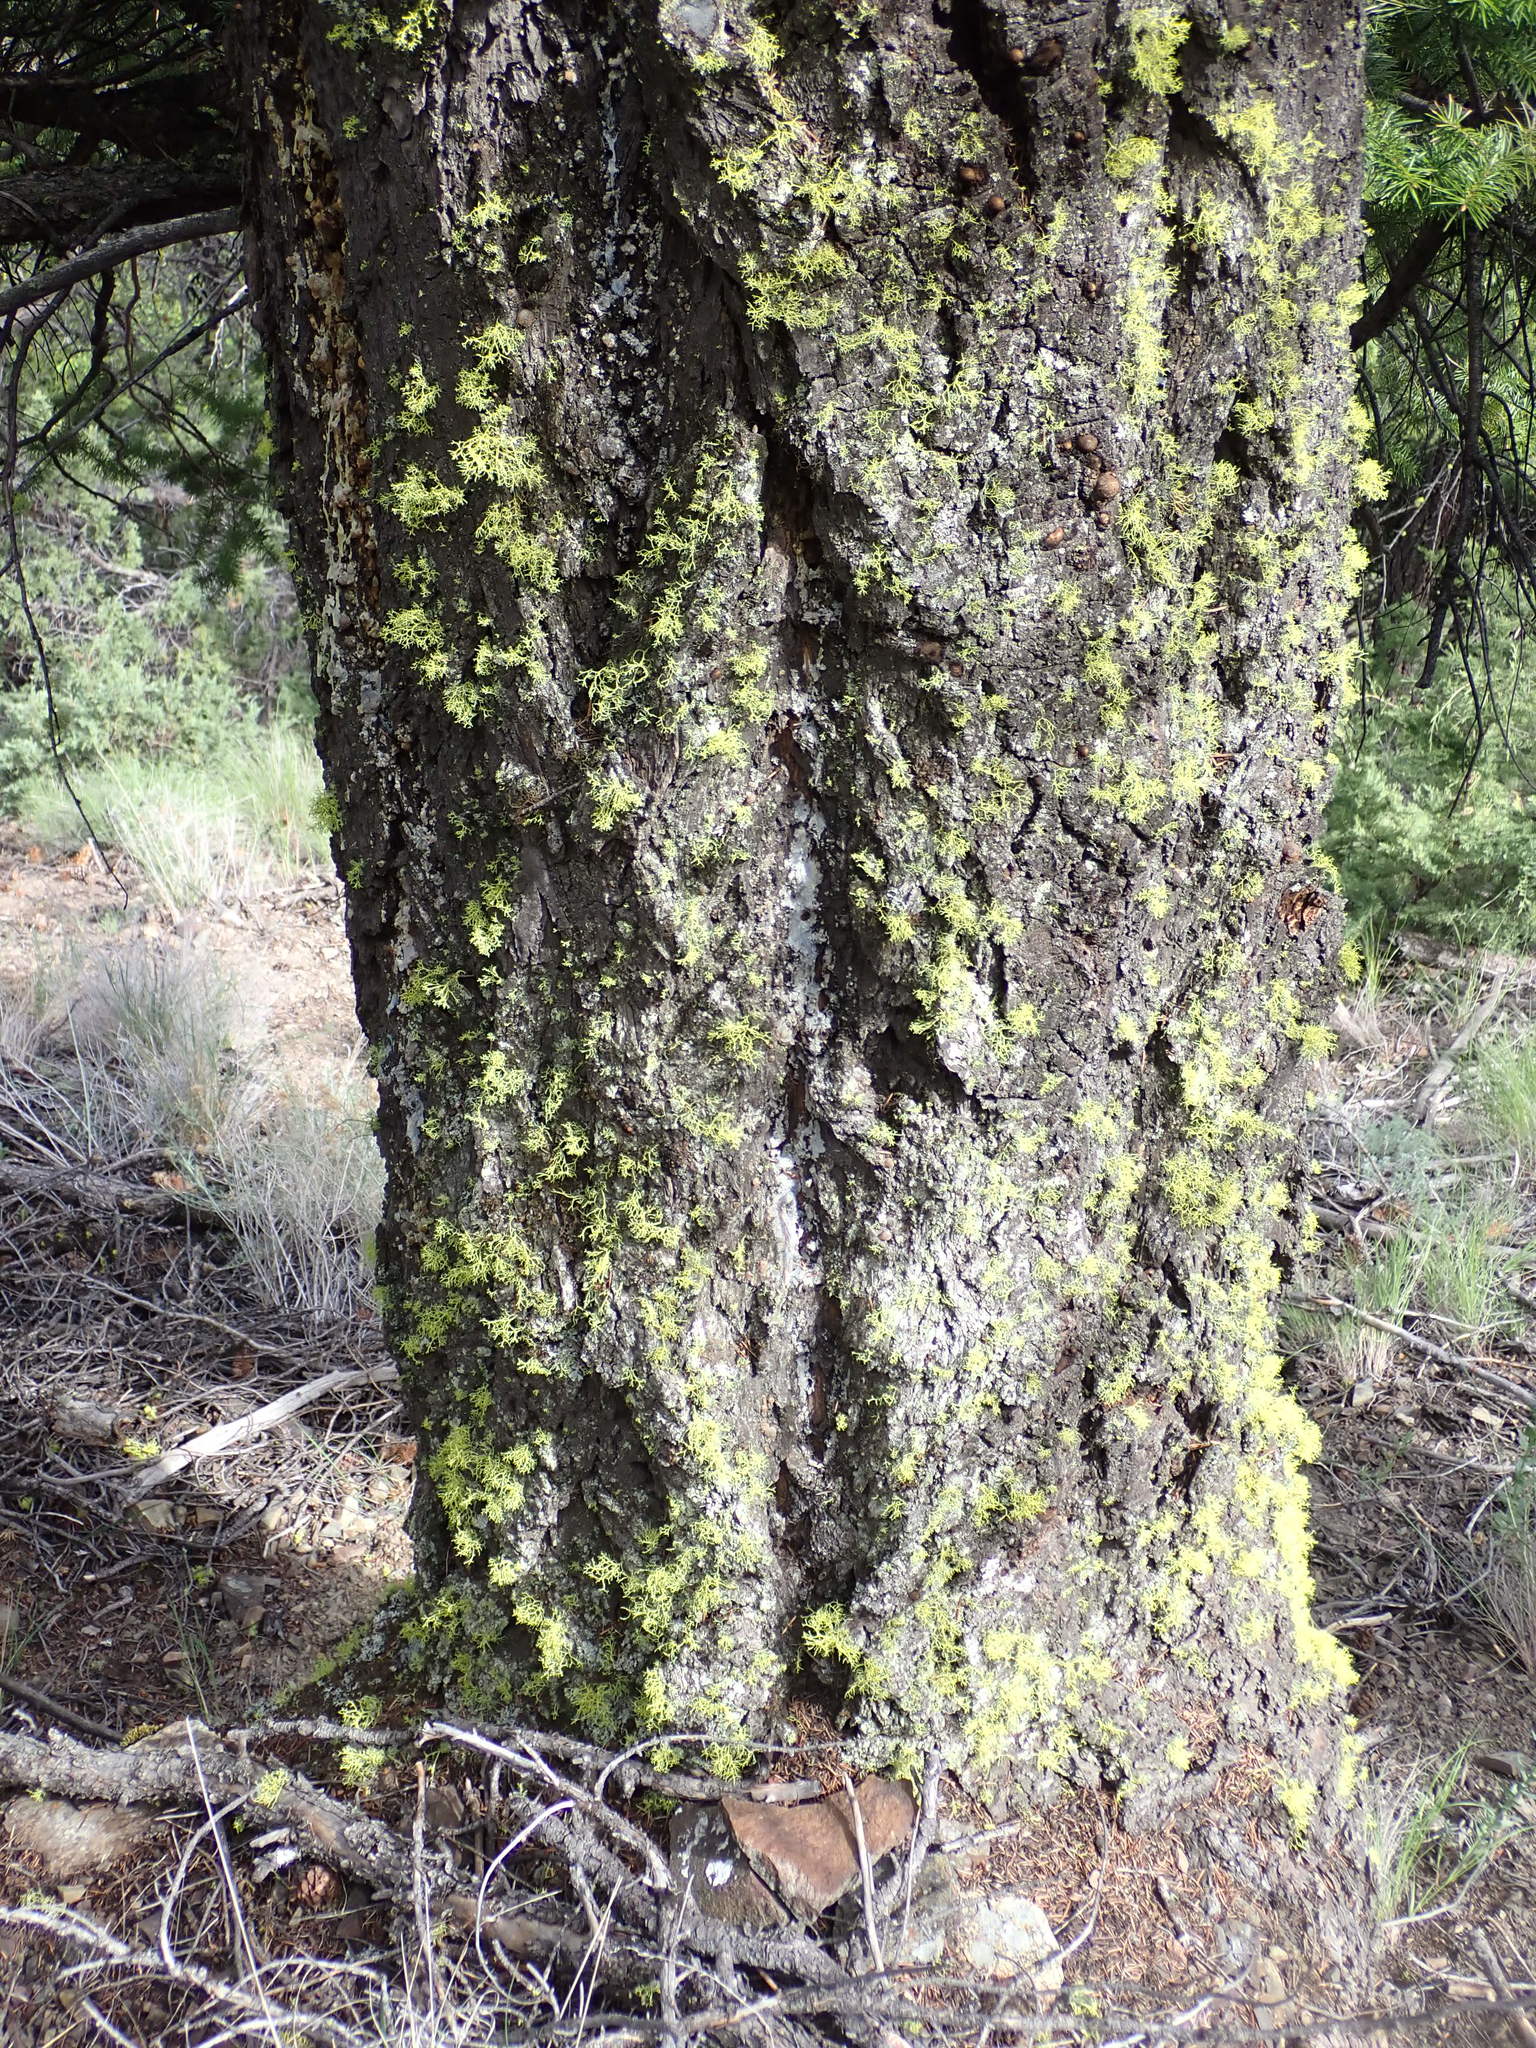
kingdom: Plantae
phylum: Tracheophyta
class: Pinopsida
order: Pinales
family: Pinaceae
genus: Pseudotsuga
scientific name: Pseudotsuga menziesii
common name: Douglas fir
